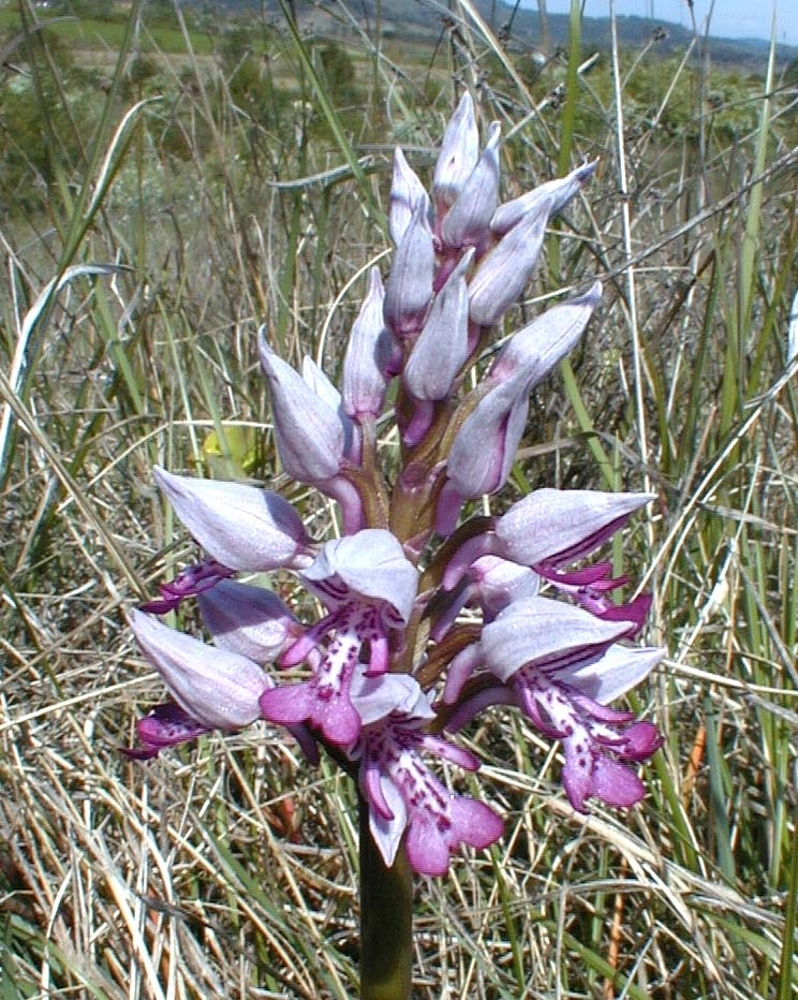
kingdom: Plantae
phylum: Tracheophyta
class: Liliopsida
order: Asparagales
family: Orchidaceae
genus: Orchis
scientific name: Orchis militaris
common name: Military orchid
